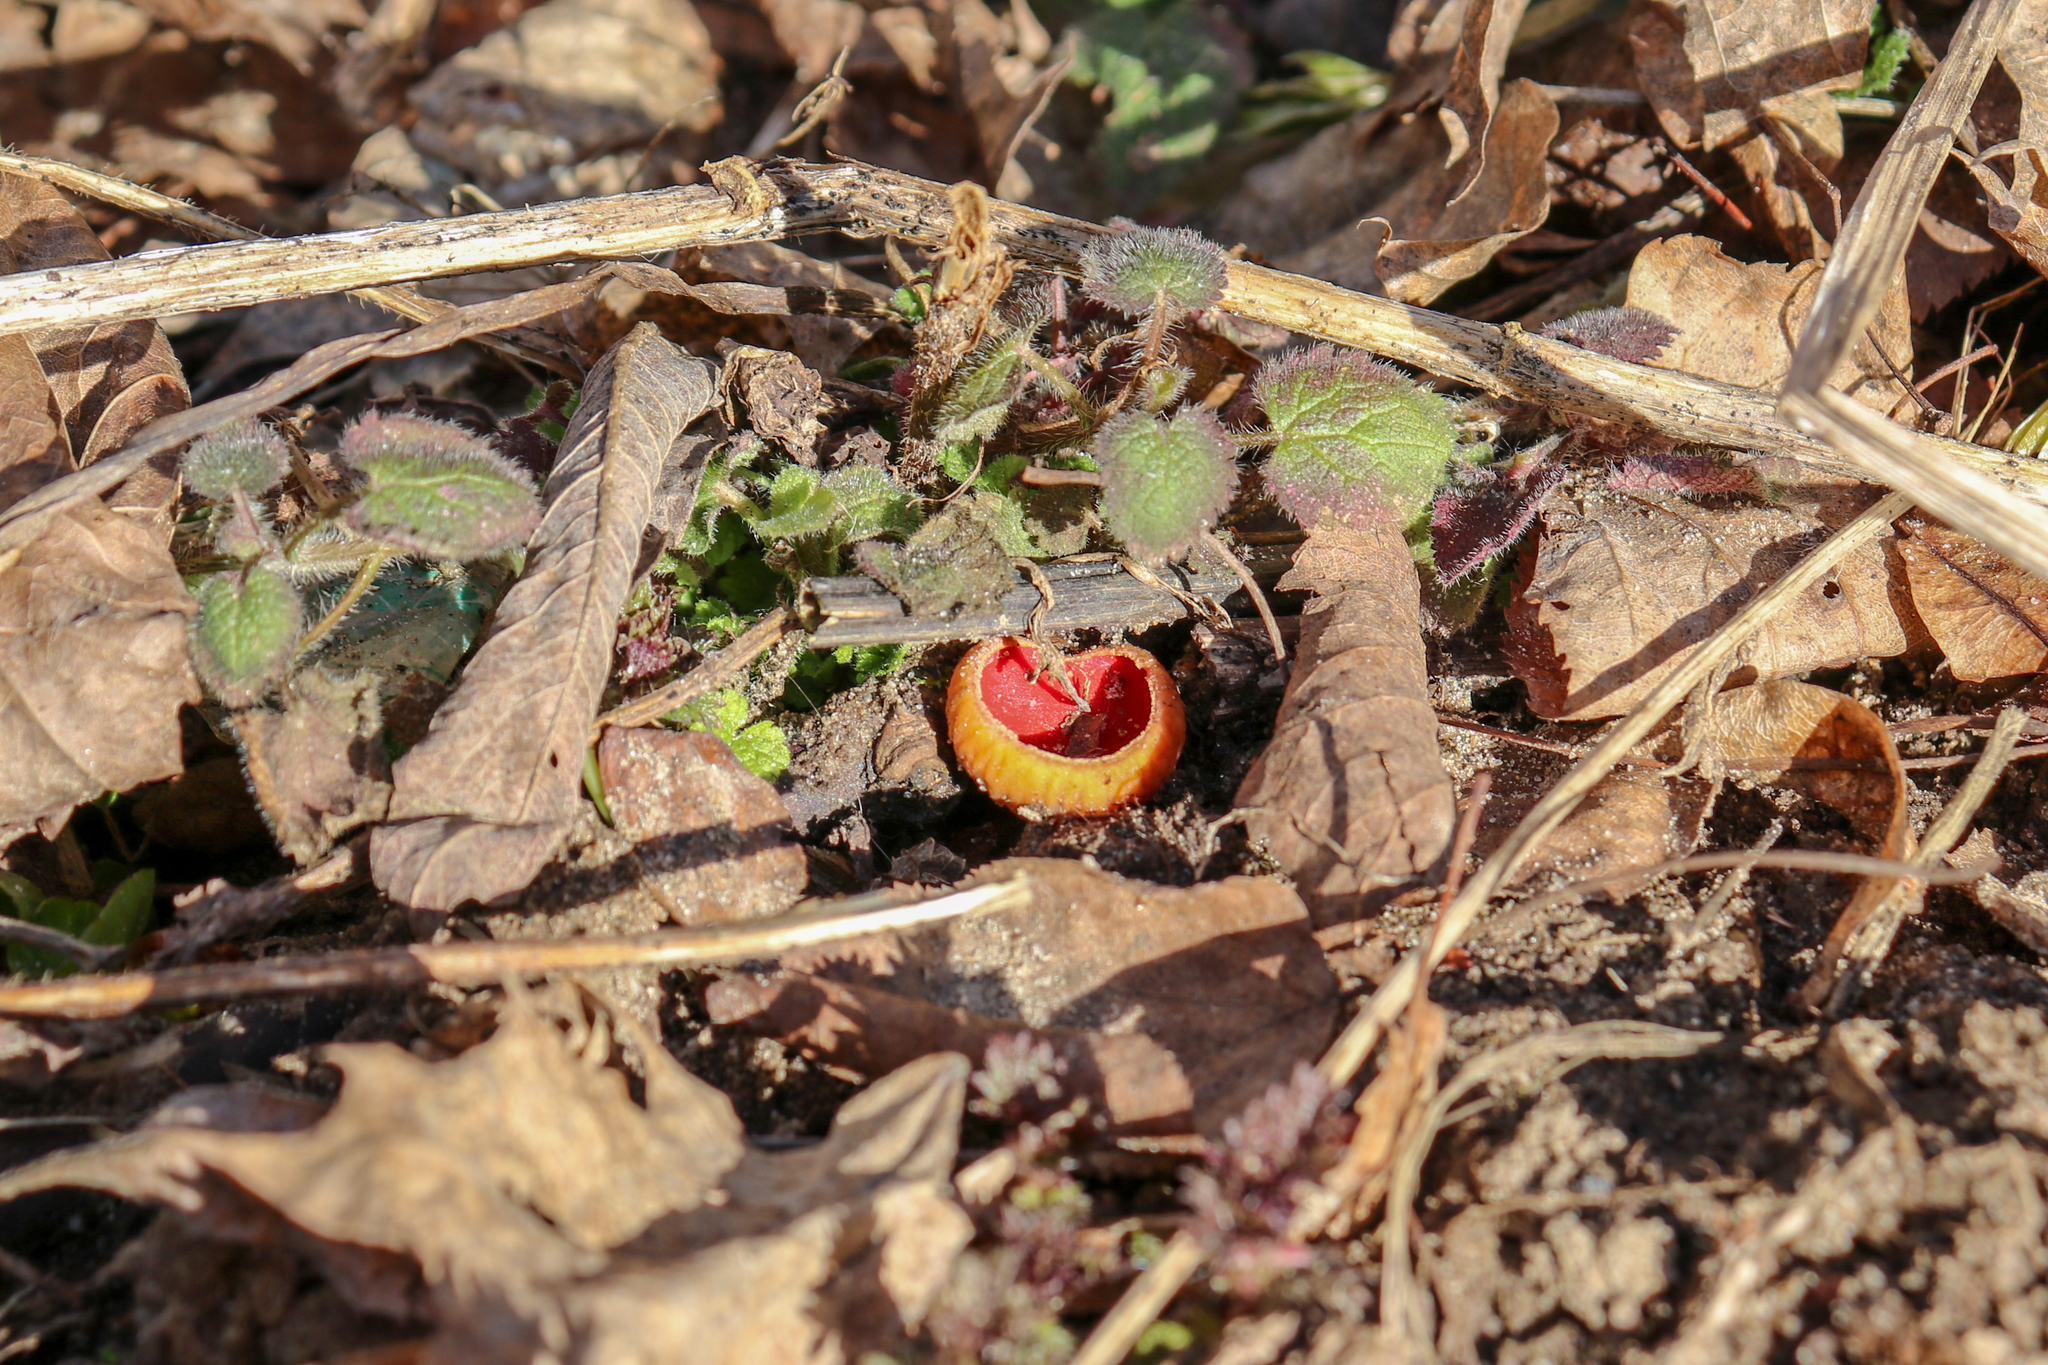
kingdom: Fungi
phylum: Ascomycota
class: Pezizomycetes
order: Pezizales
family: Sarcoscyphaceae
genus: Sarcoscypha
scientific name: Sarcoscypha austriaca
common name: Scarlet elfcup
